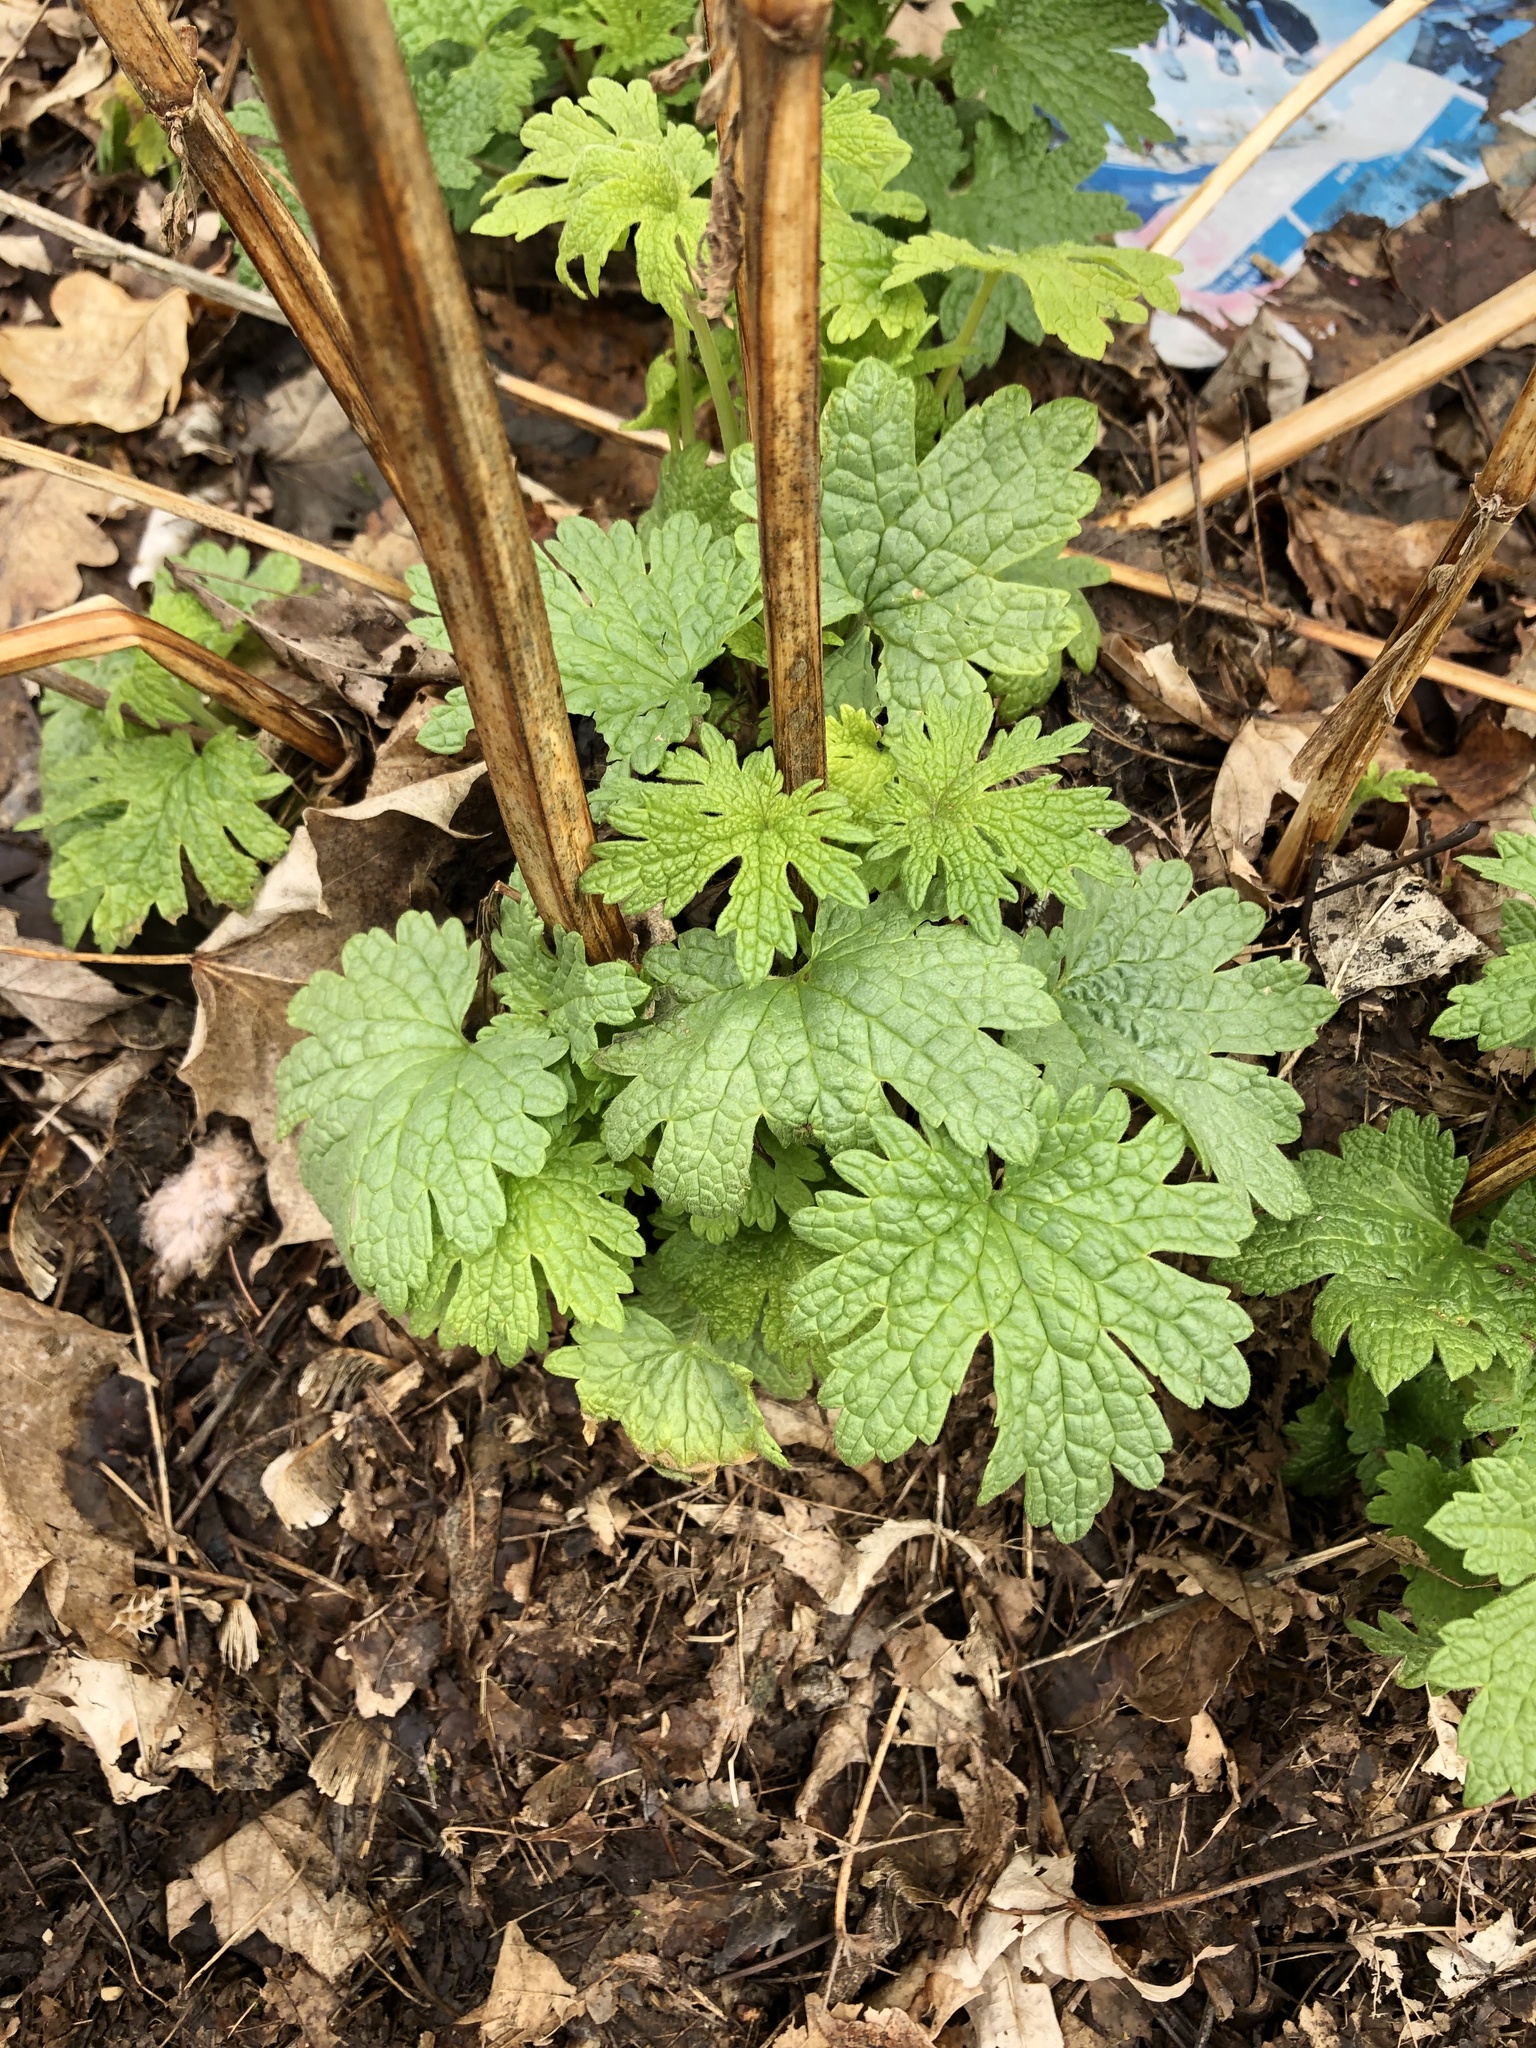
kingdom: Plantae
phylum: Tracheophyta
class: Magnoliopsida
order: Lamiales
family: Lamiaceae
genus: Leonurus
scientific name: Leonurus cardiaca
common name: Motherwort
